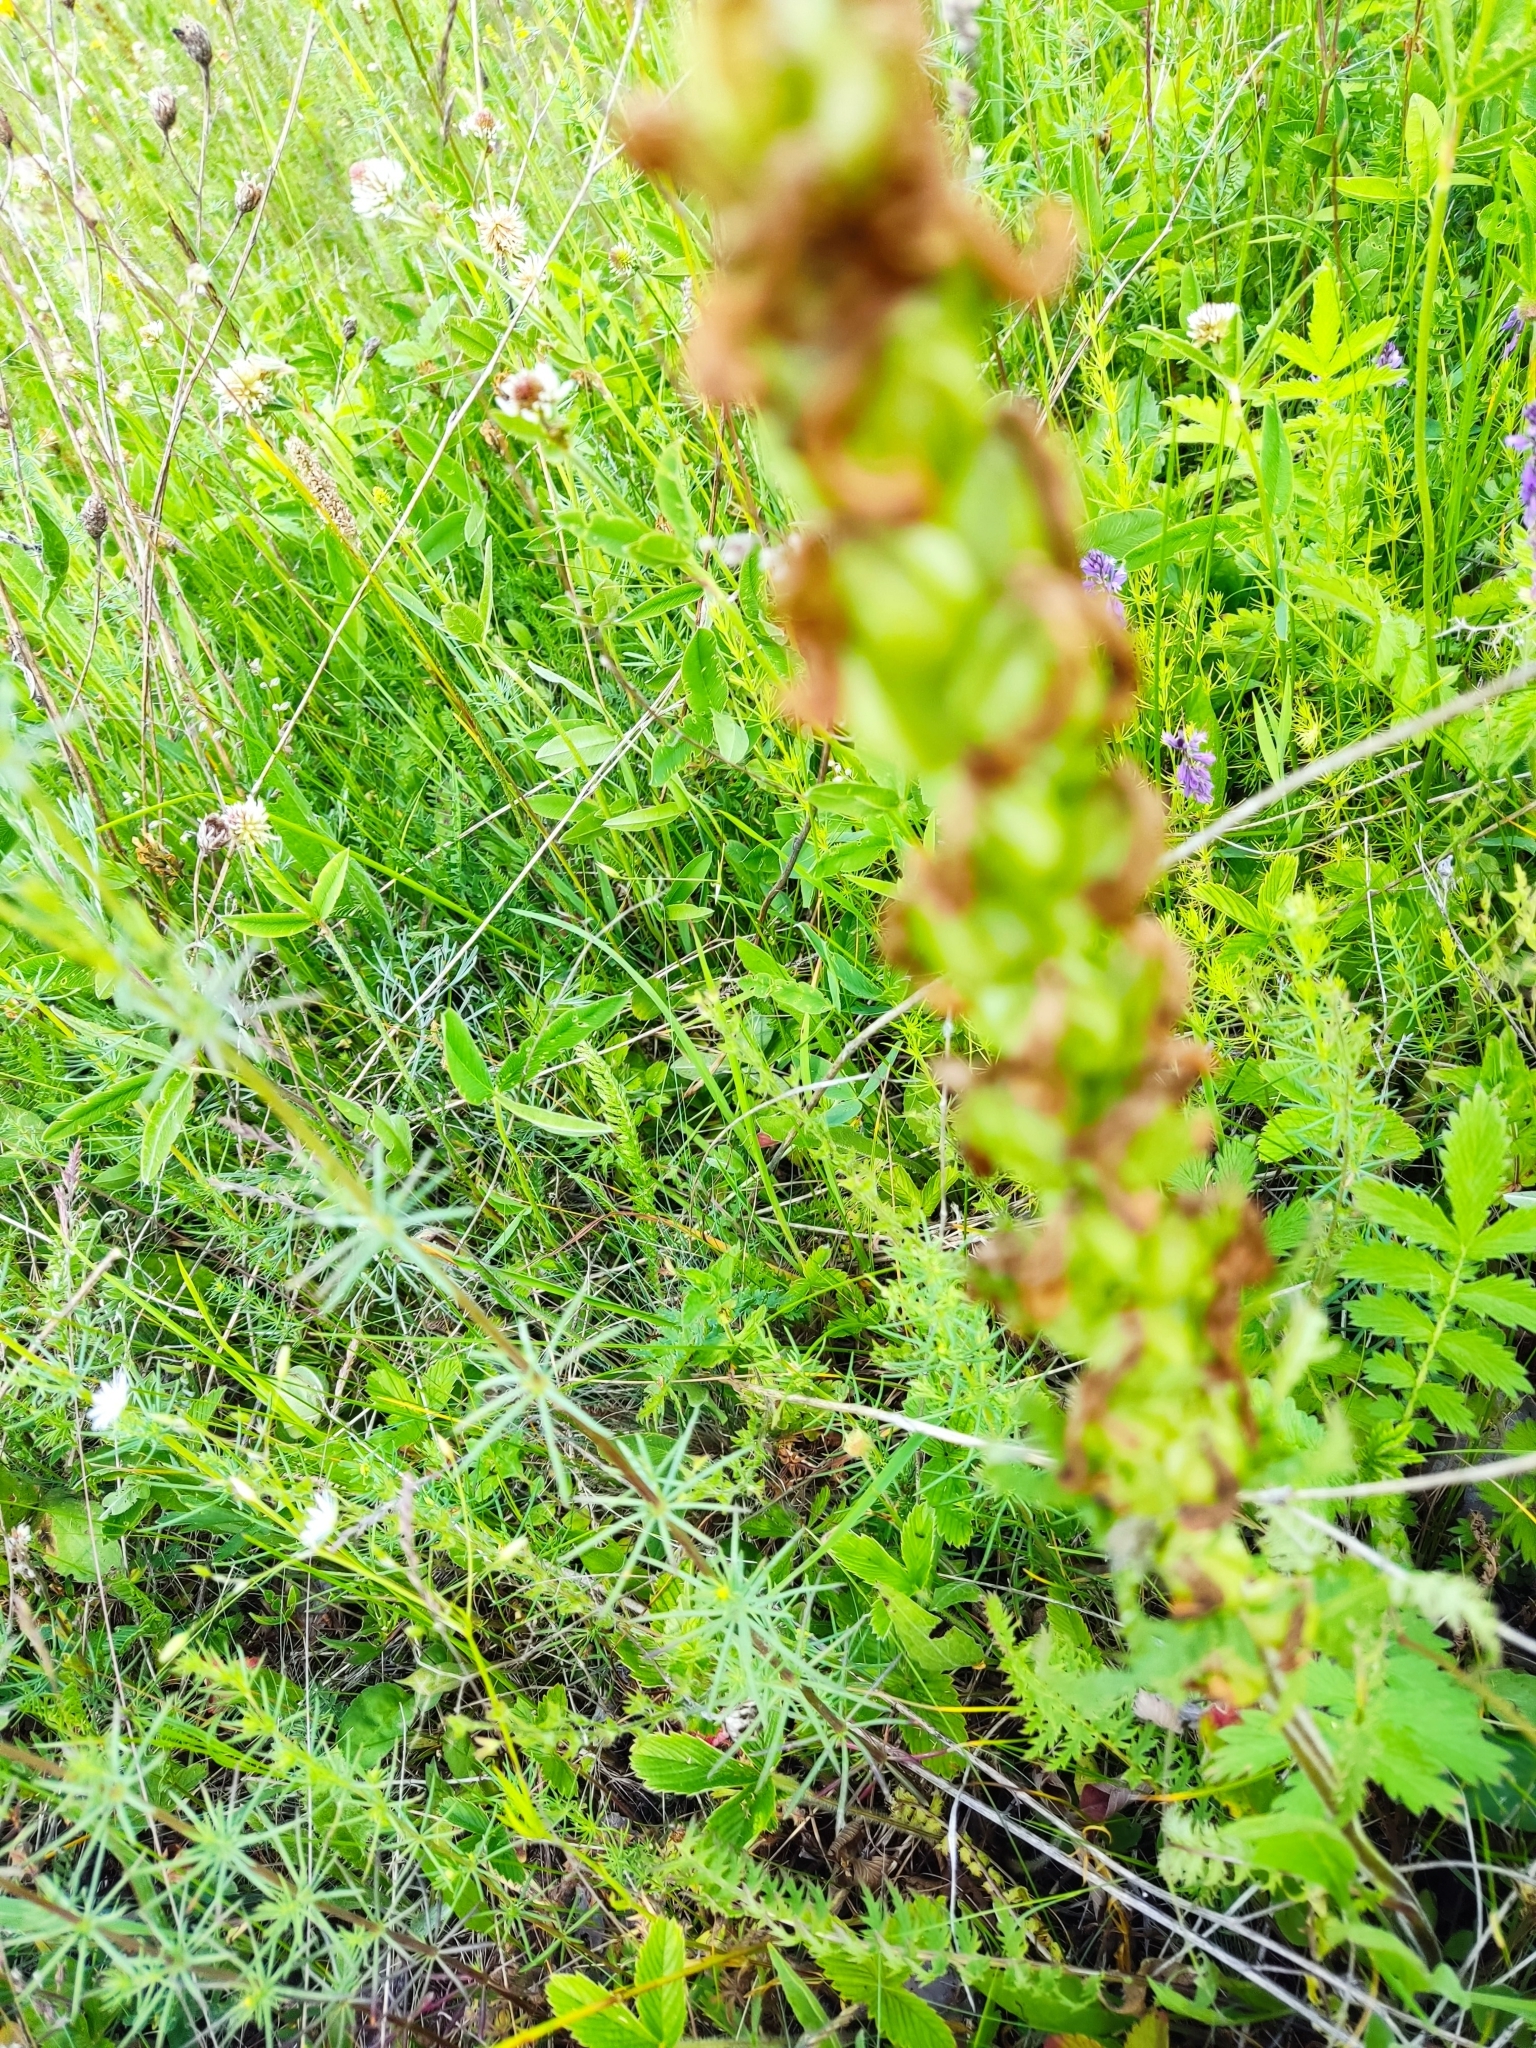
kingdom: Plantae
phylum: Tracheophyta
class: Magnoliopsida
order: Lamiales
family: Orobanchaceae
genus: Pedicularis
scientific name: Pedicularis kaufmannii
